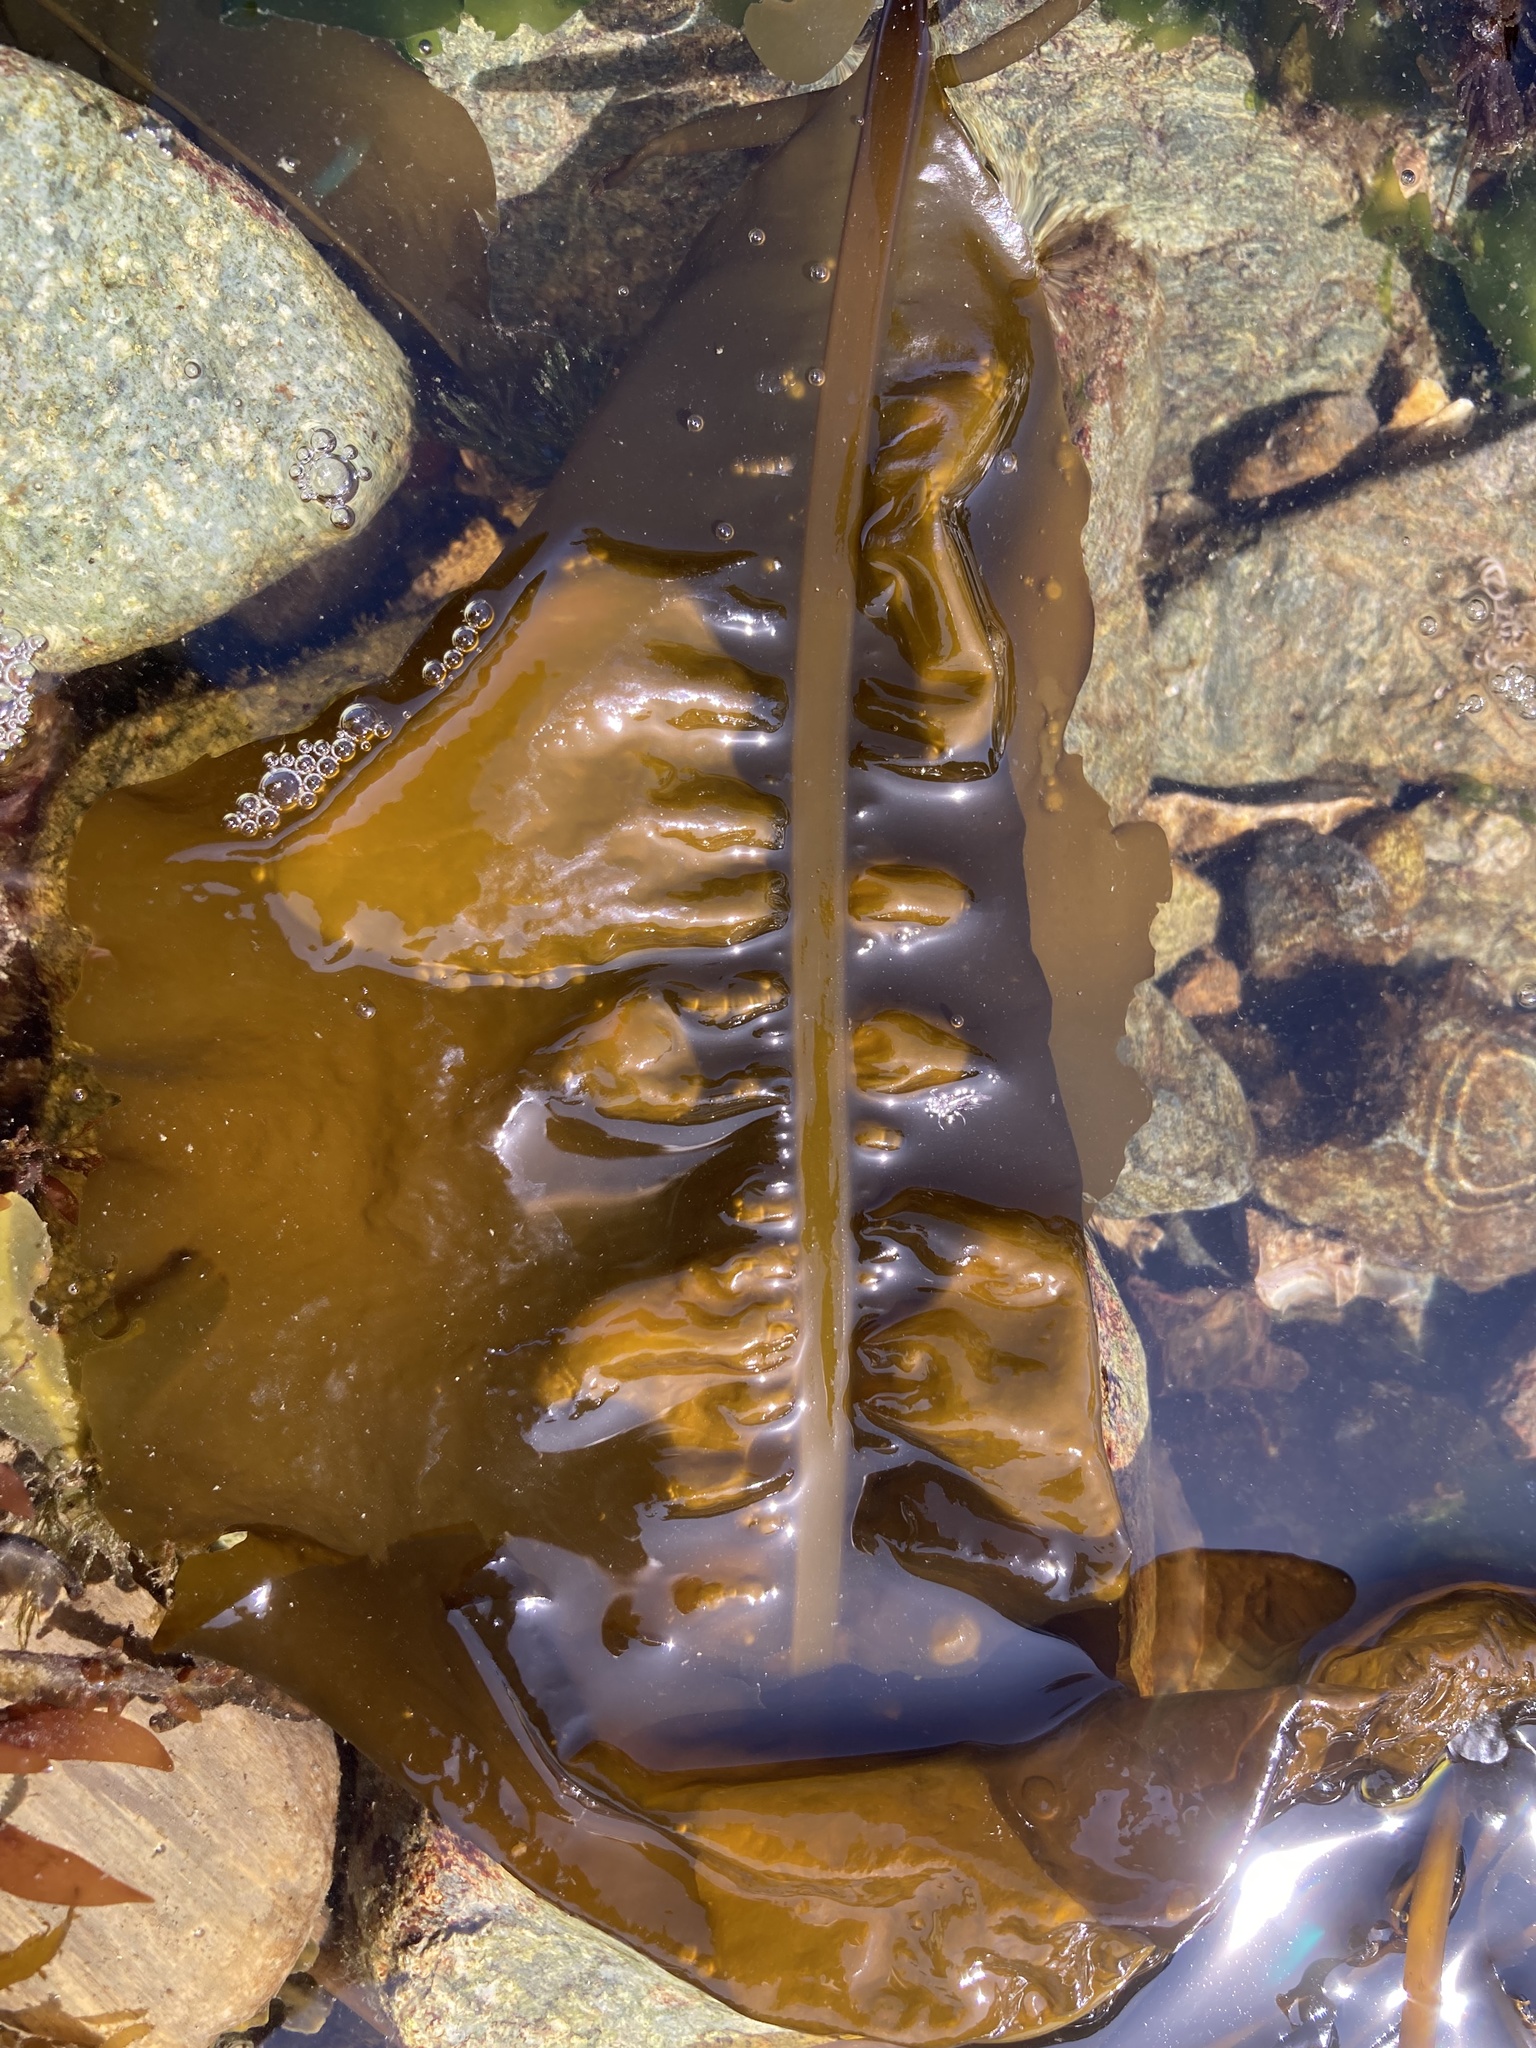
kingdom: Chromista
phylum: Ochrophyta
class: Phaeophyceae
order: Laminariales
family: Alariaceae
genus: Alaria
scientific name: Alaria marginata
